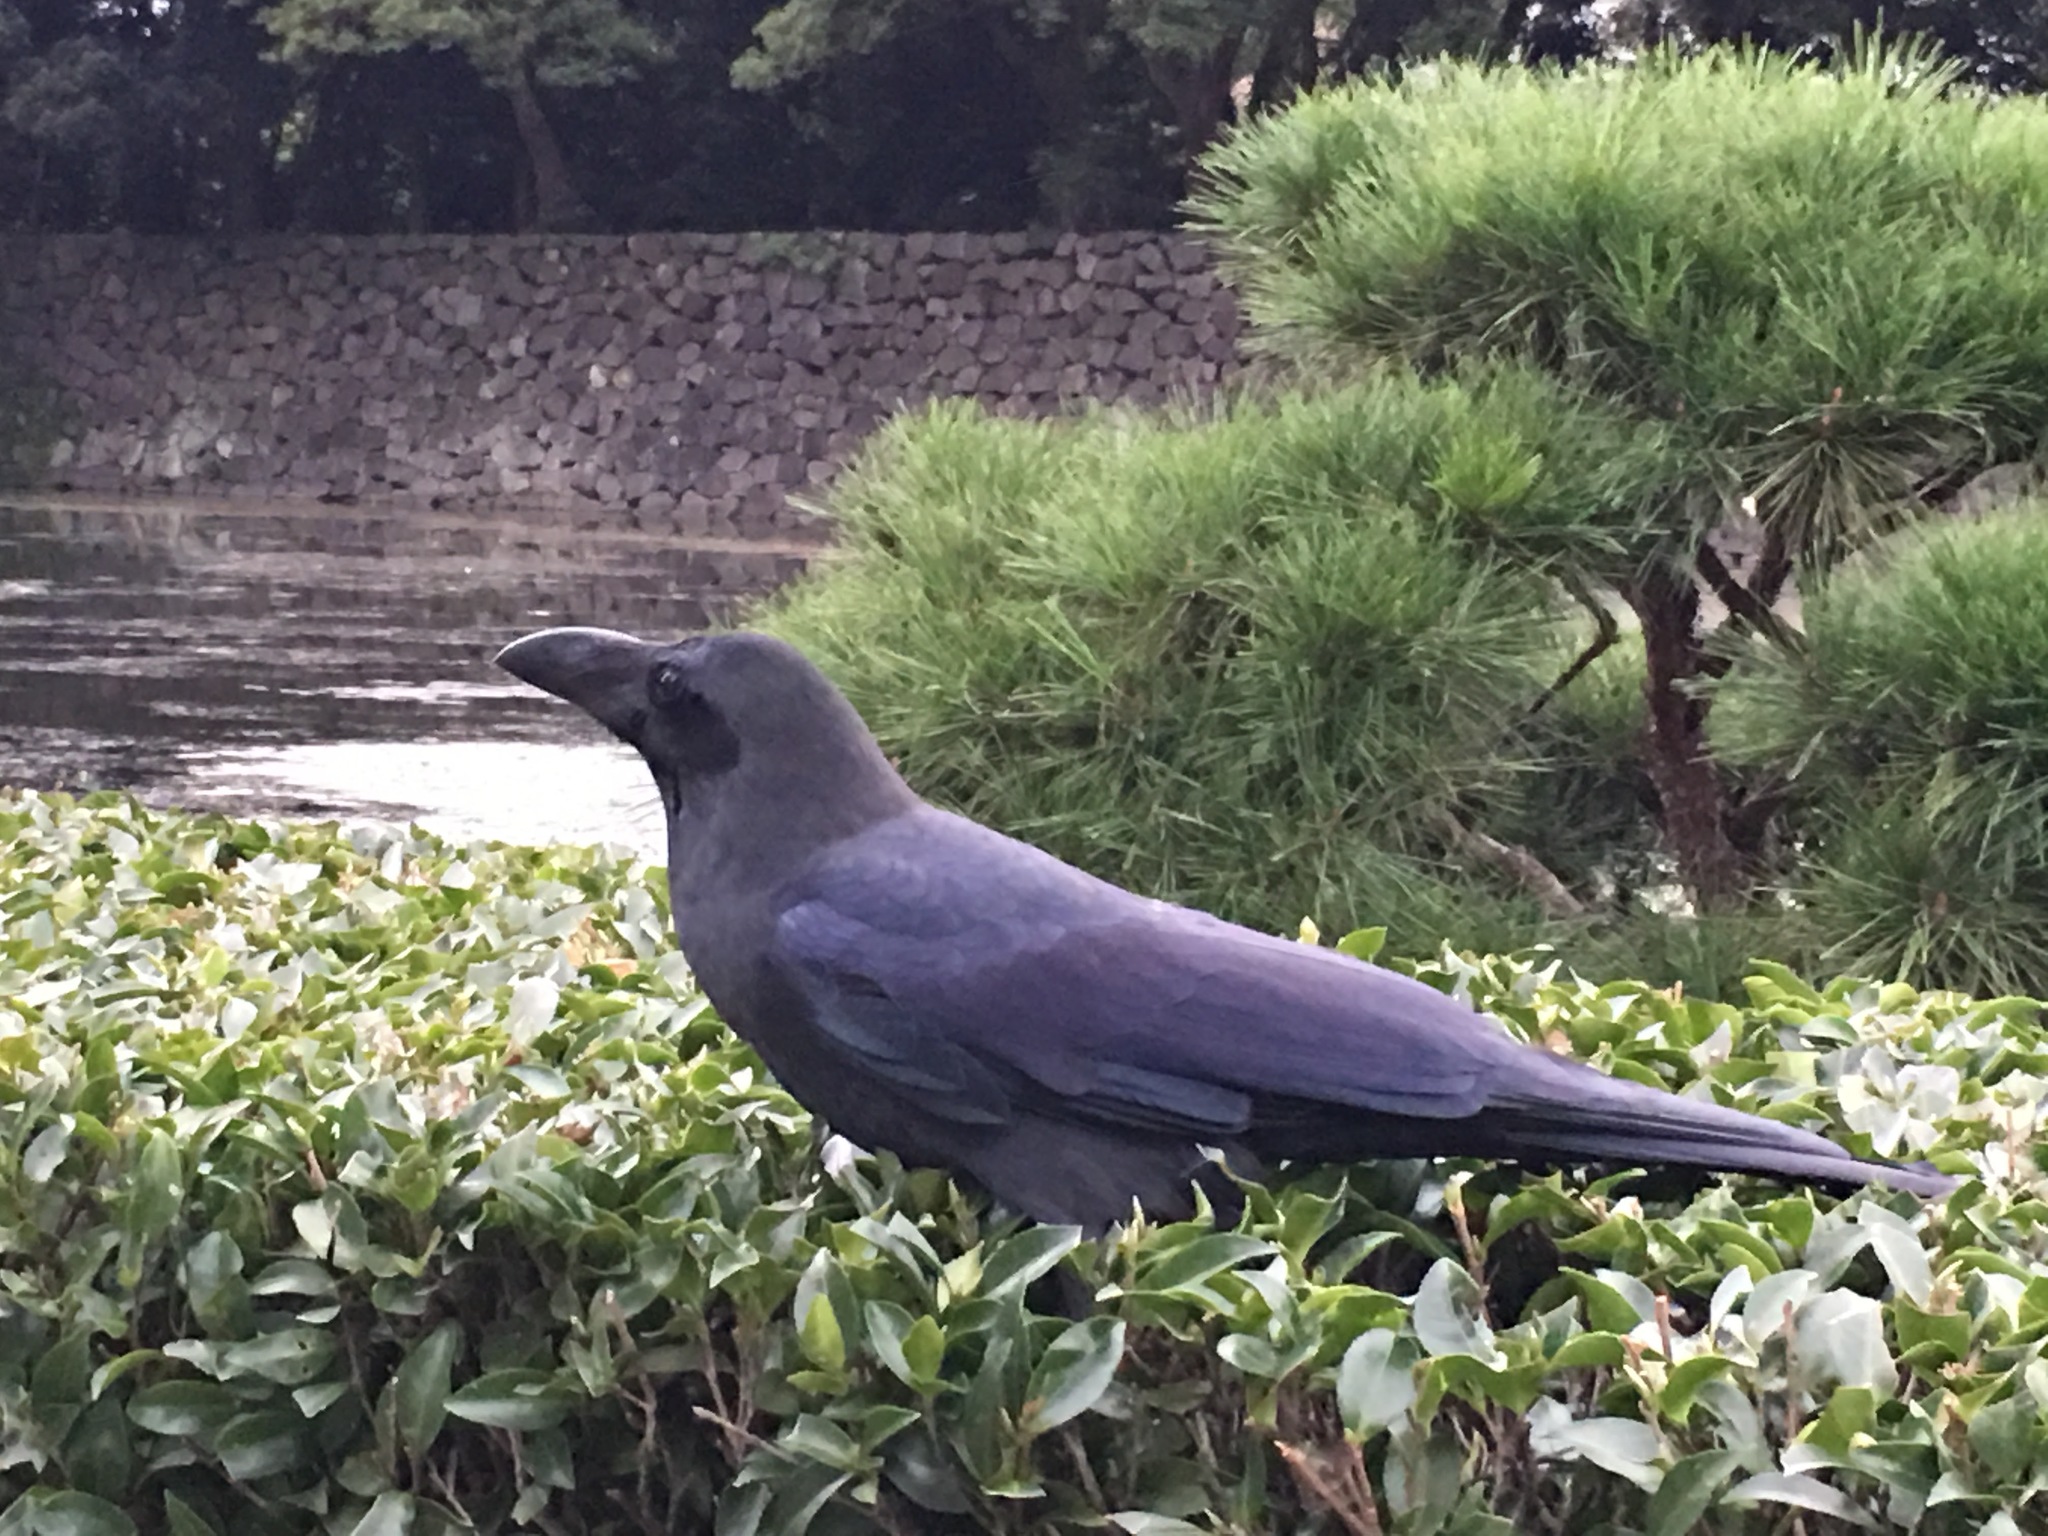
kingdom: Animalia
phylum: Chordata
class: Aves
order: Passeriformes
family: Corvidae
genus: Corvus
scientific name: Corvus macrorhynchos
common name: Large-billed crow
